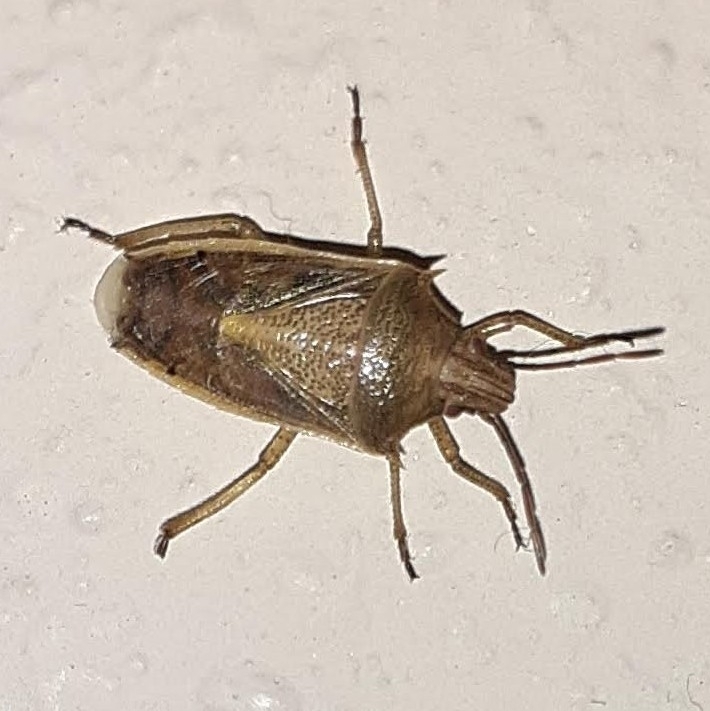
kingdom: Animalia
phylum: Arthropoda
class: Insecta
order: Hemiptera
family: Pentatomidae
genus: Oebalus
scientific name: Oebalus pugnax
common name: Rice stink bug
